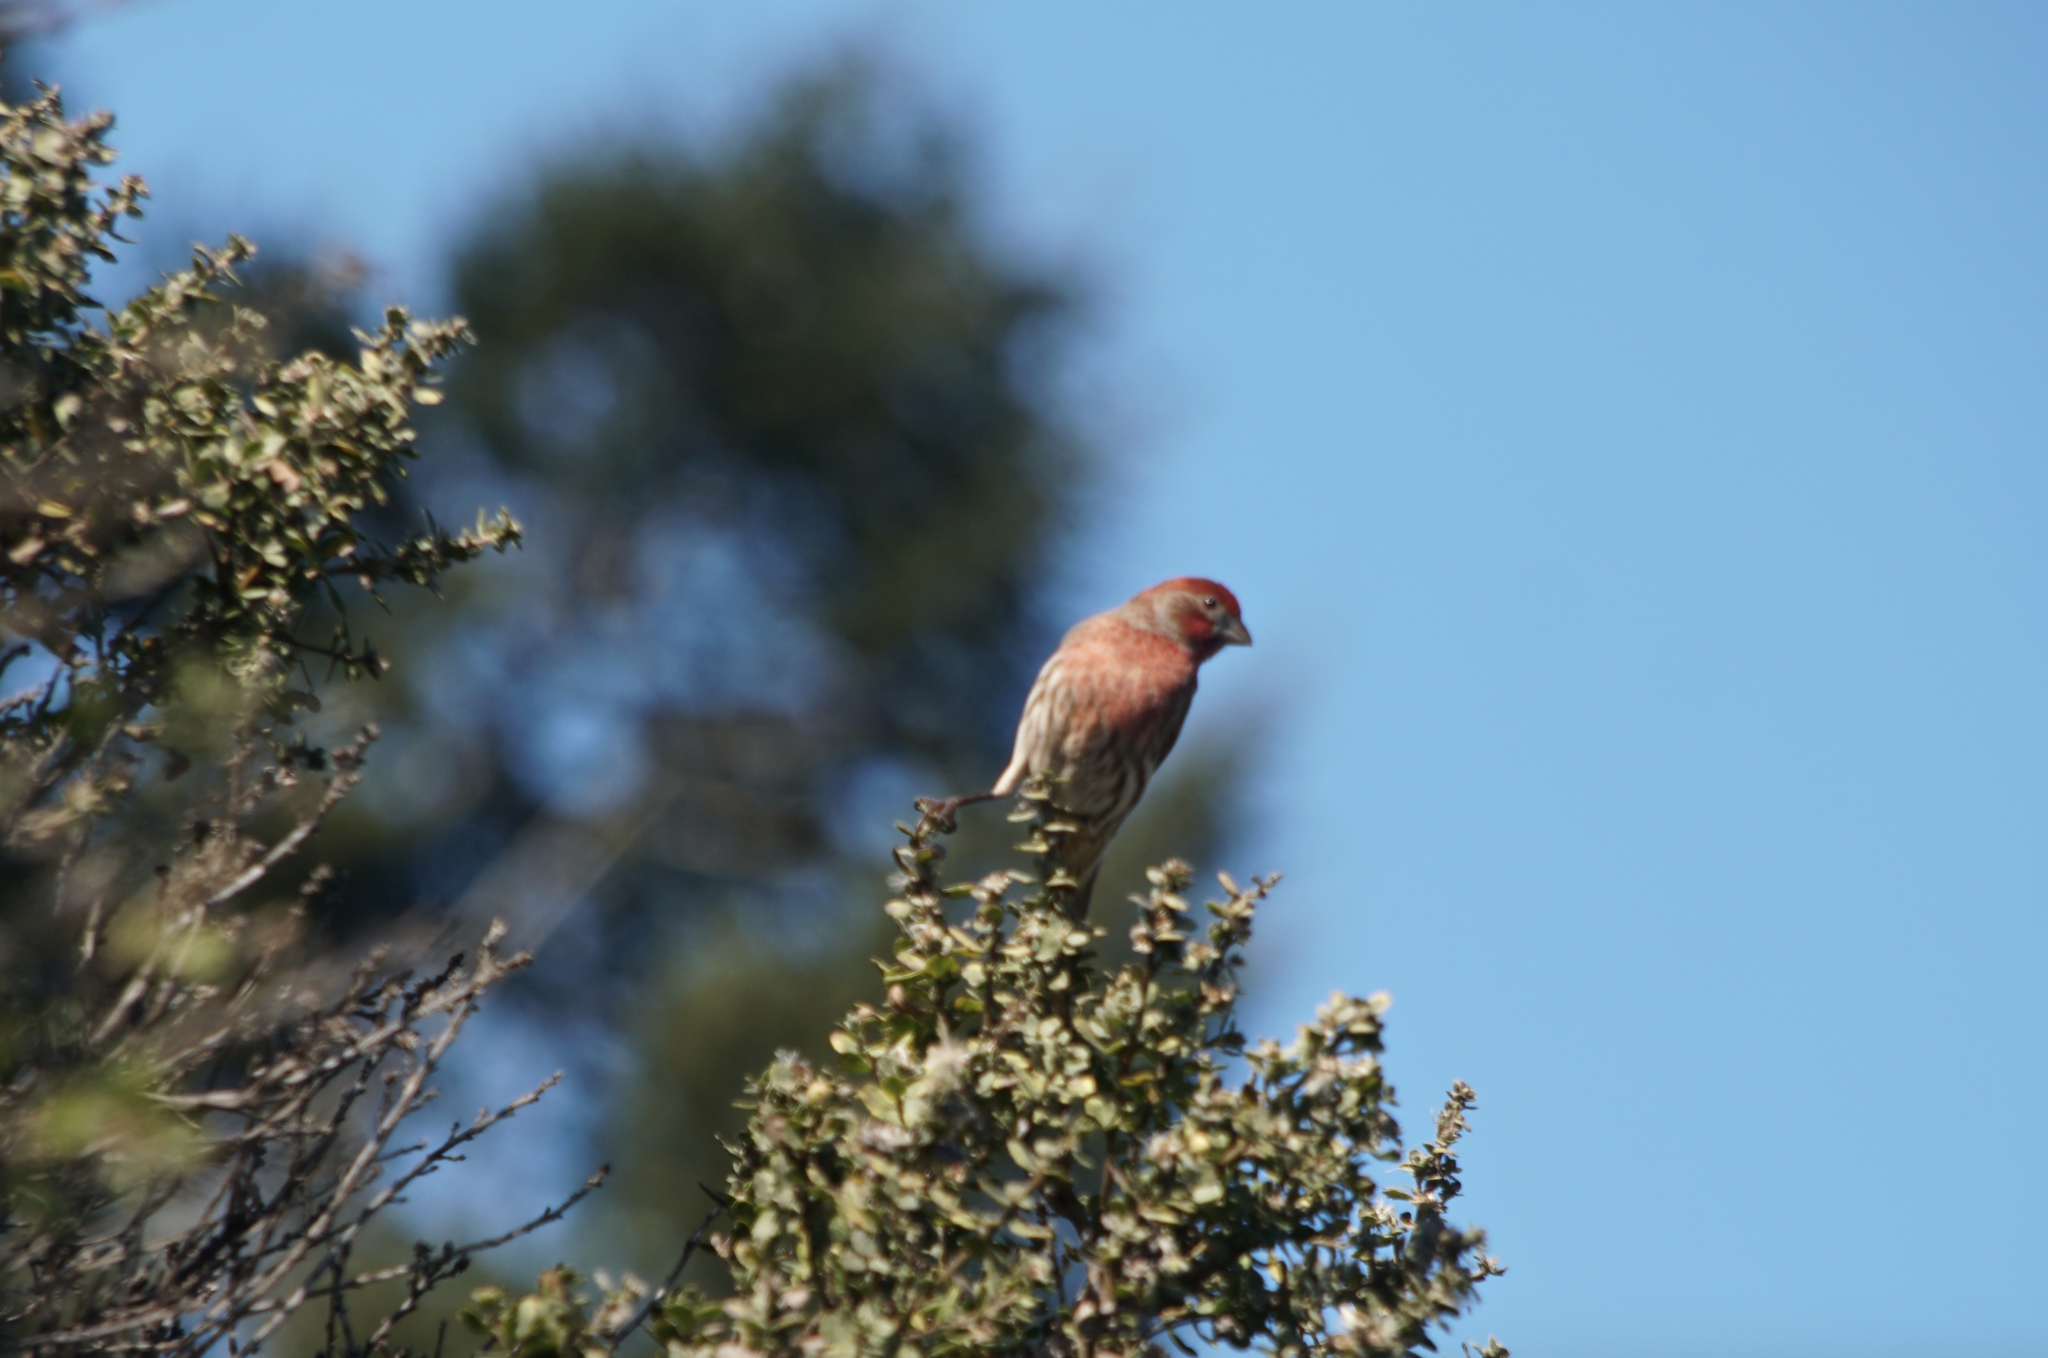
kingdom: Animalia
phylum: Chordata
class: Aves
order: Passeriformes
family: Fringillidae
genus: Haemorhous
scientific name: Haemorhous mexicanus
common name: House finch
